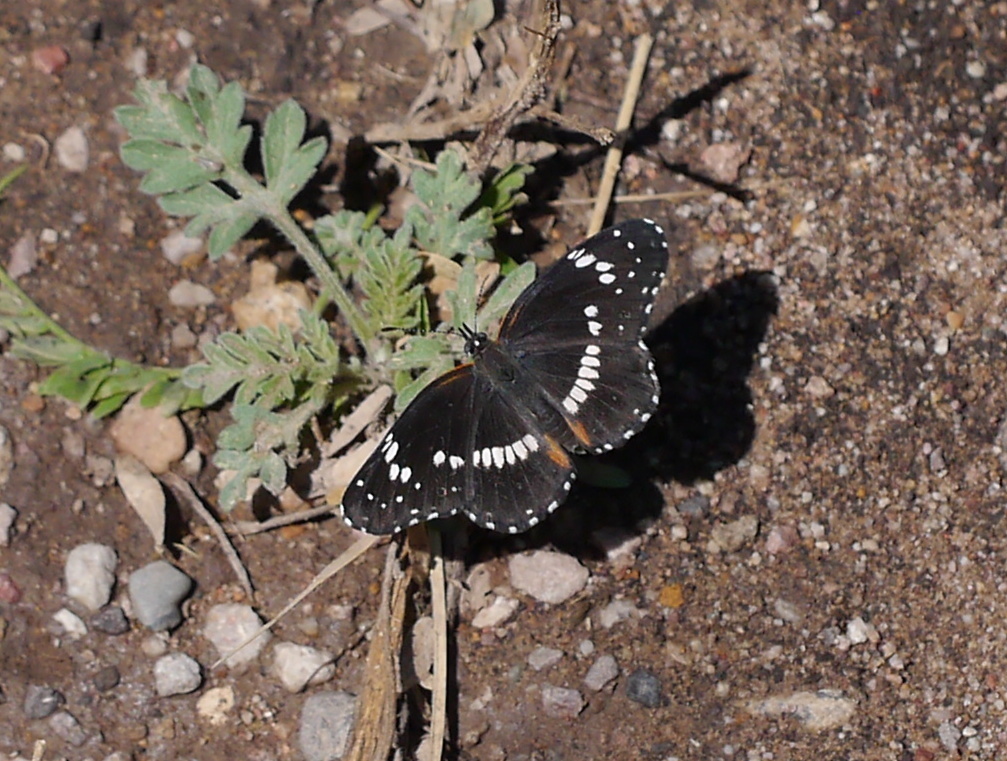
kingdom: Animalia
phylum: Arthropoda
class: Insecta
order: Lepidoptera
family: Nymphalidae
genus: Chlosyne
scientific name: Chlosyne lacinia
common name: Bordered patch
